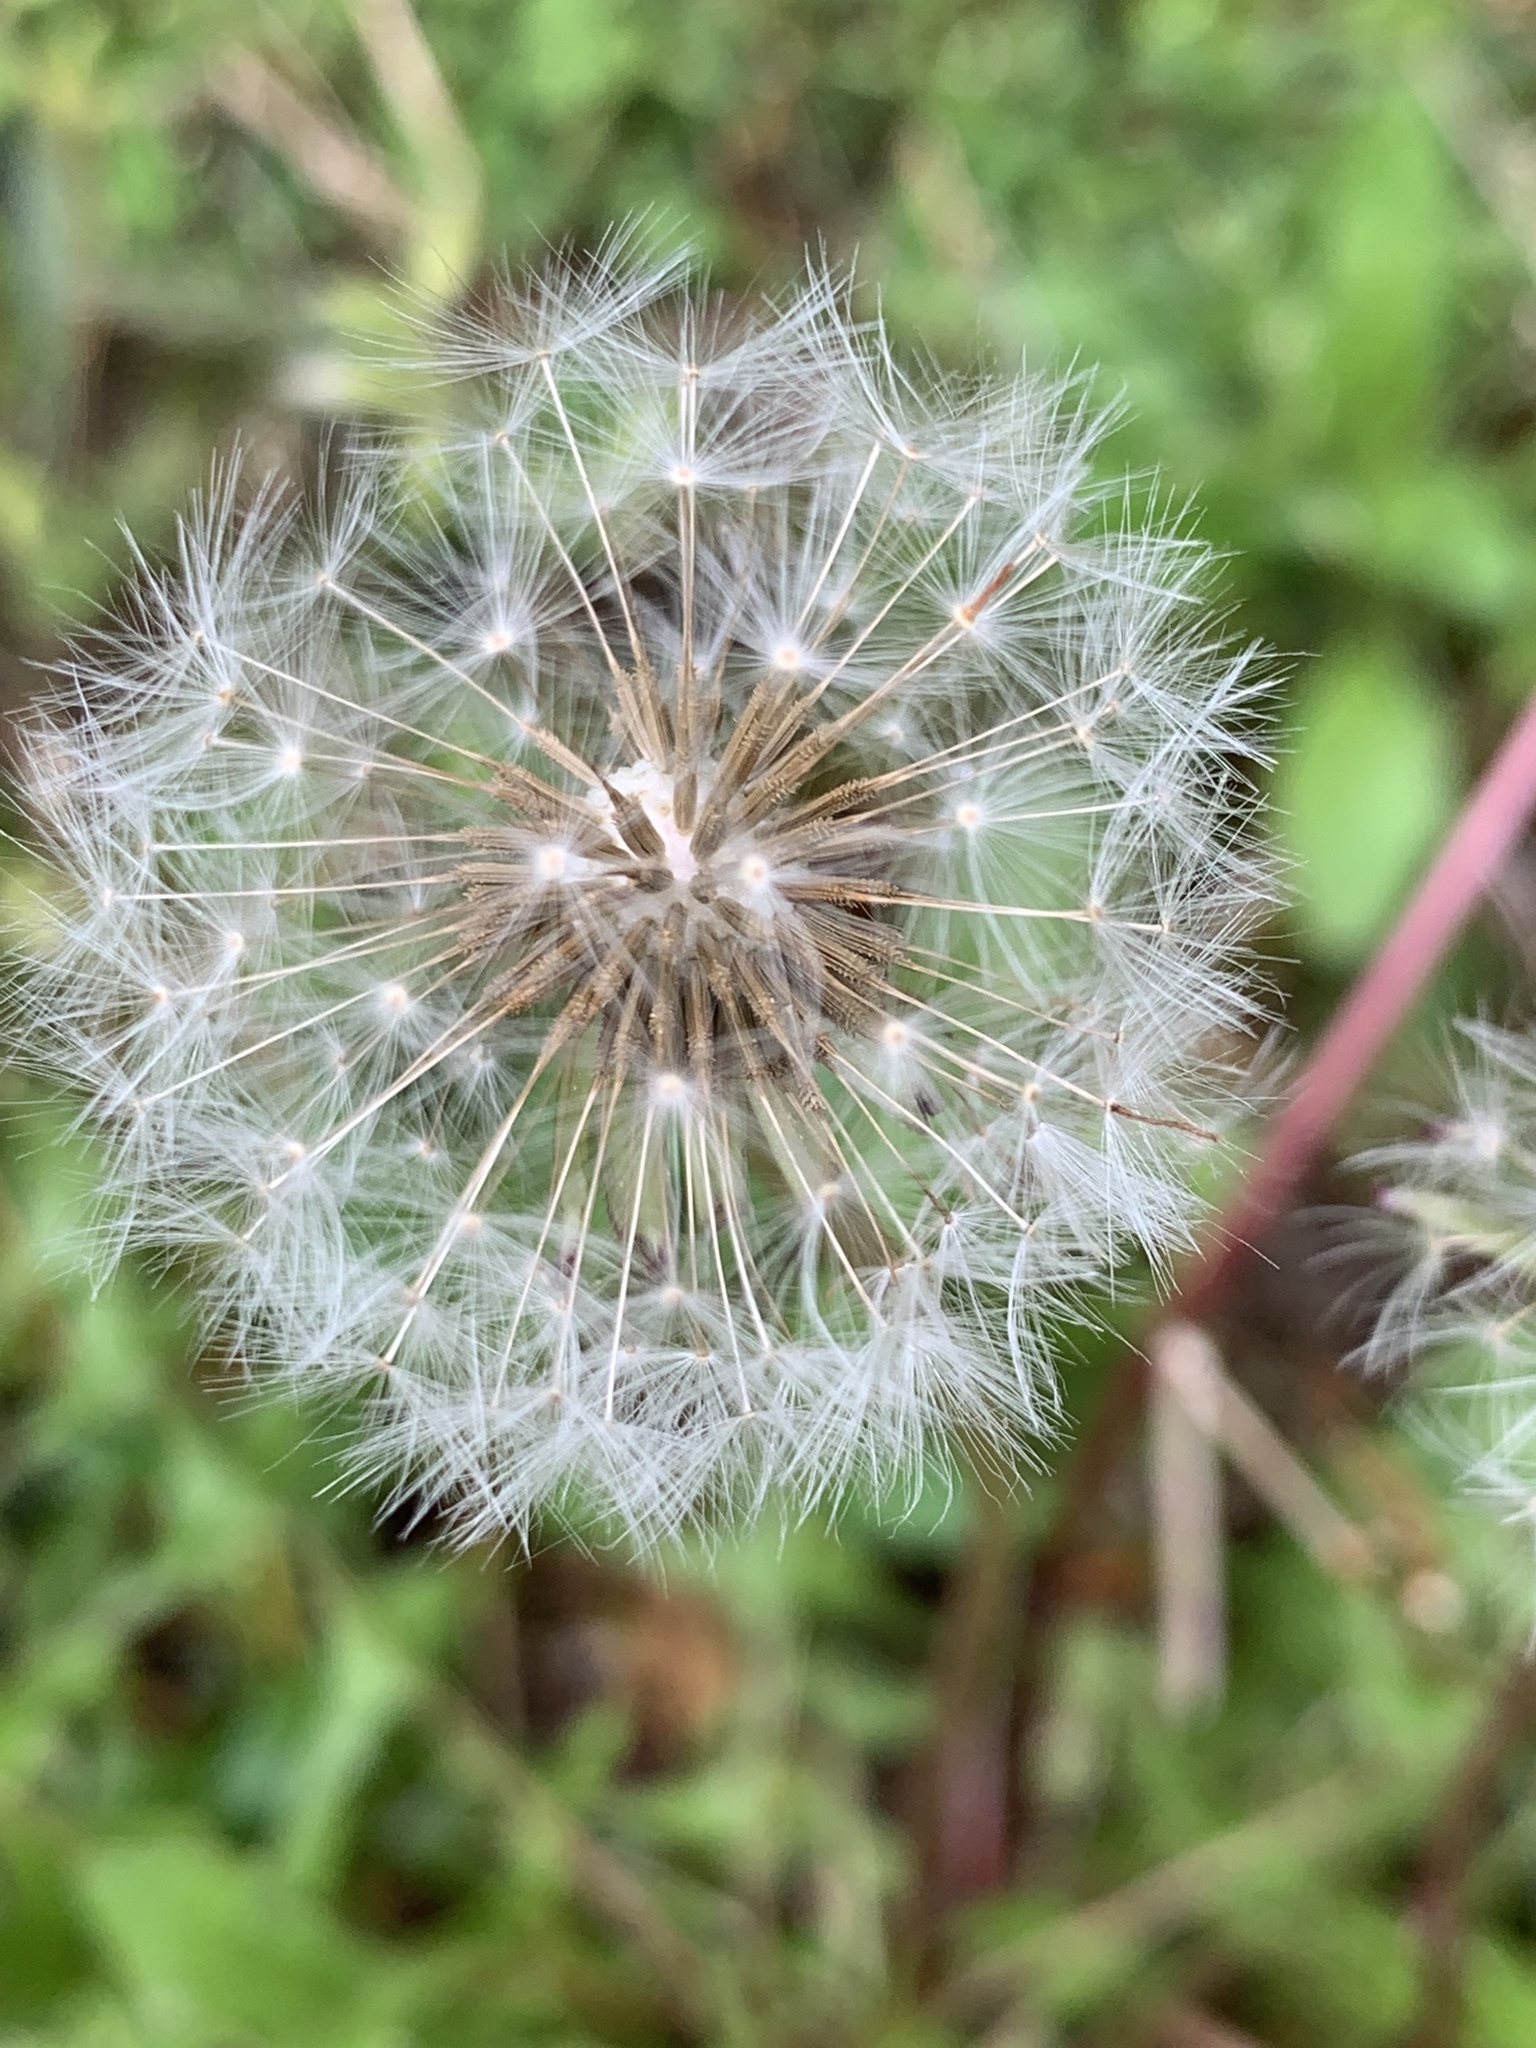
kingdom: Plantae
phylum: Tracheophyta
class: Magnoliopsida
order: Asterales
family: Asteraceae
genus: Taraxacum
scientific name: Taraxacum officinale
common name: Common dandelion
